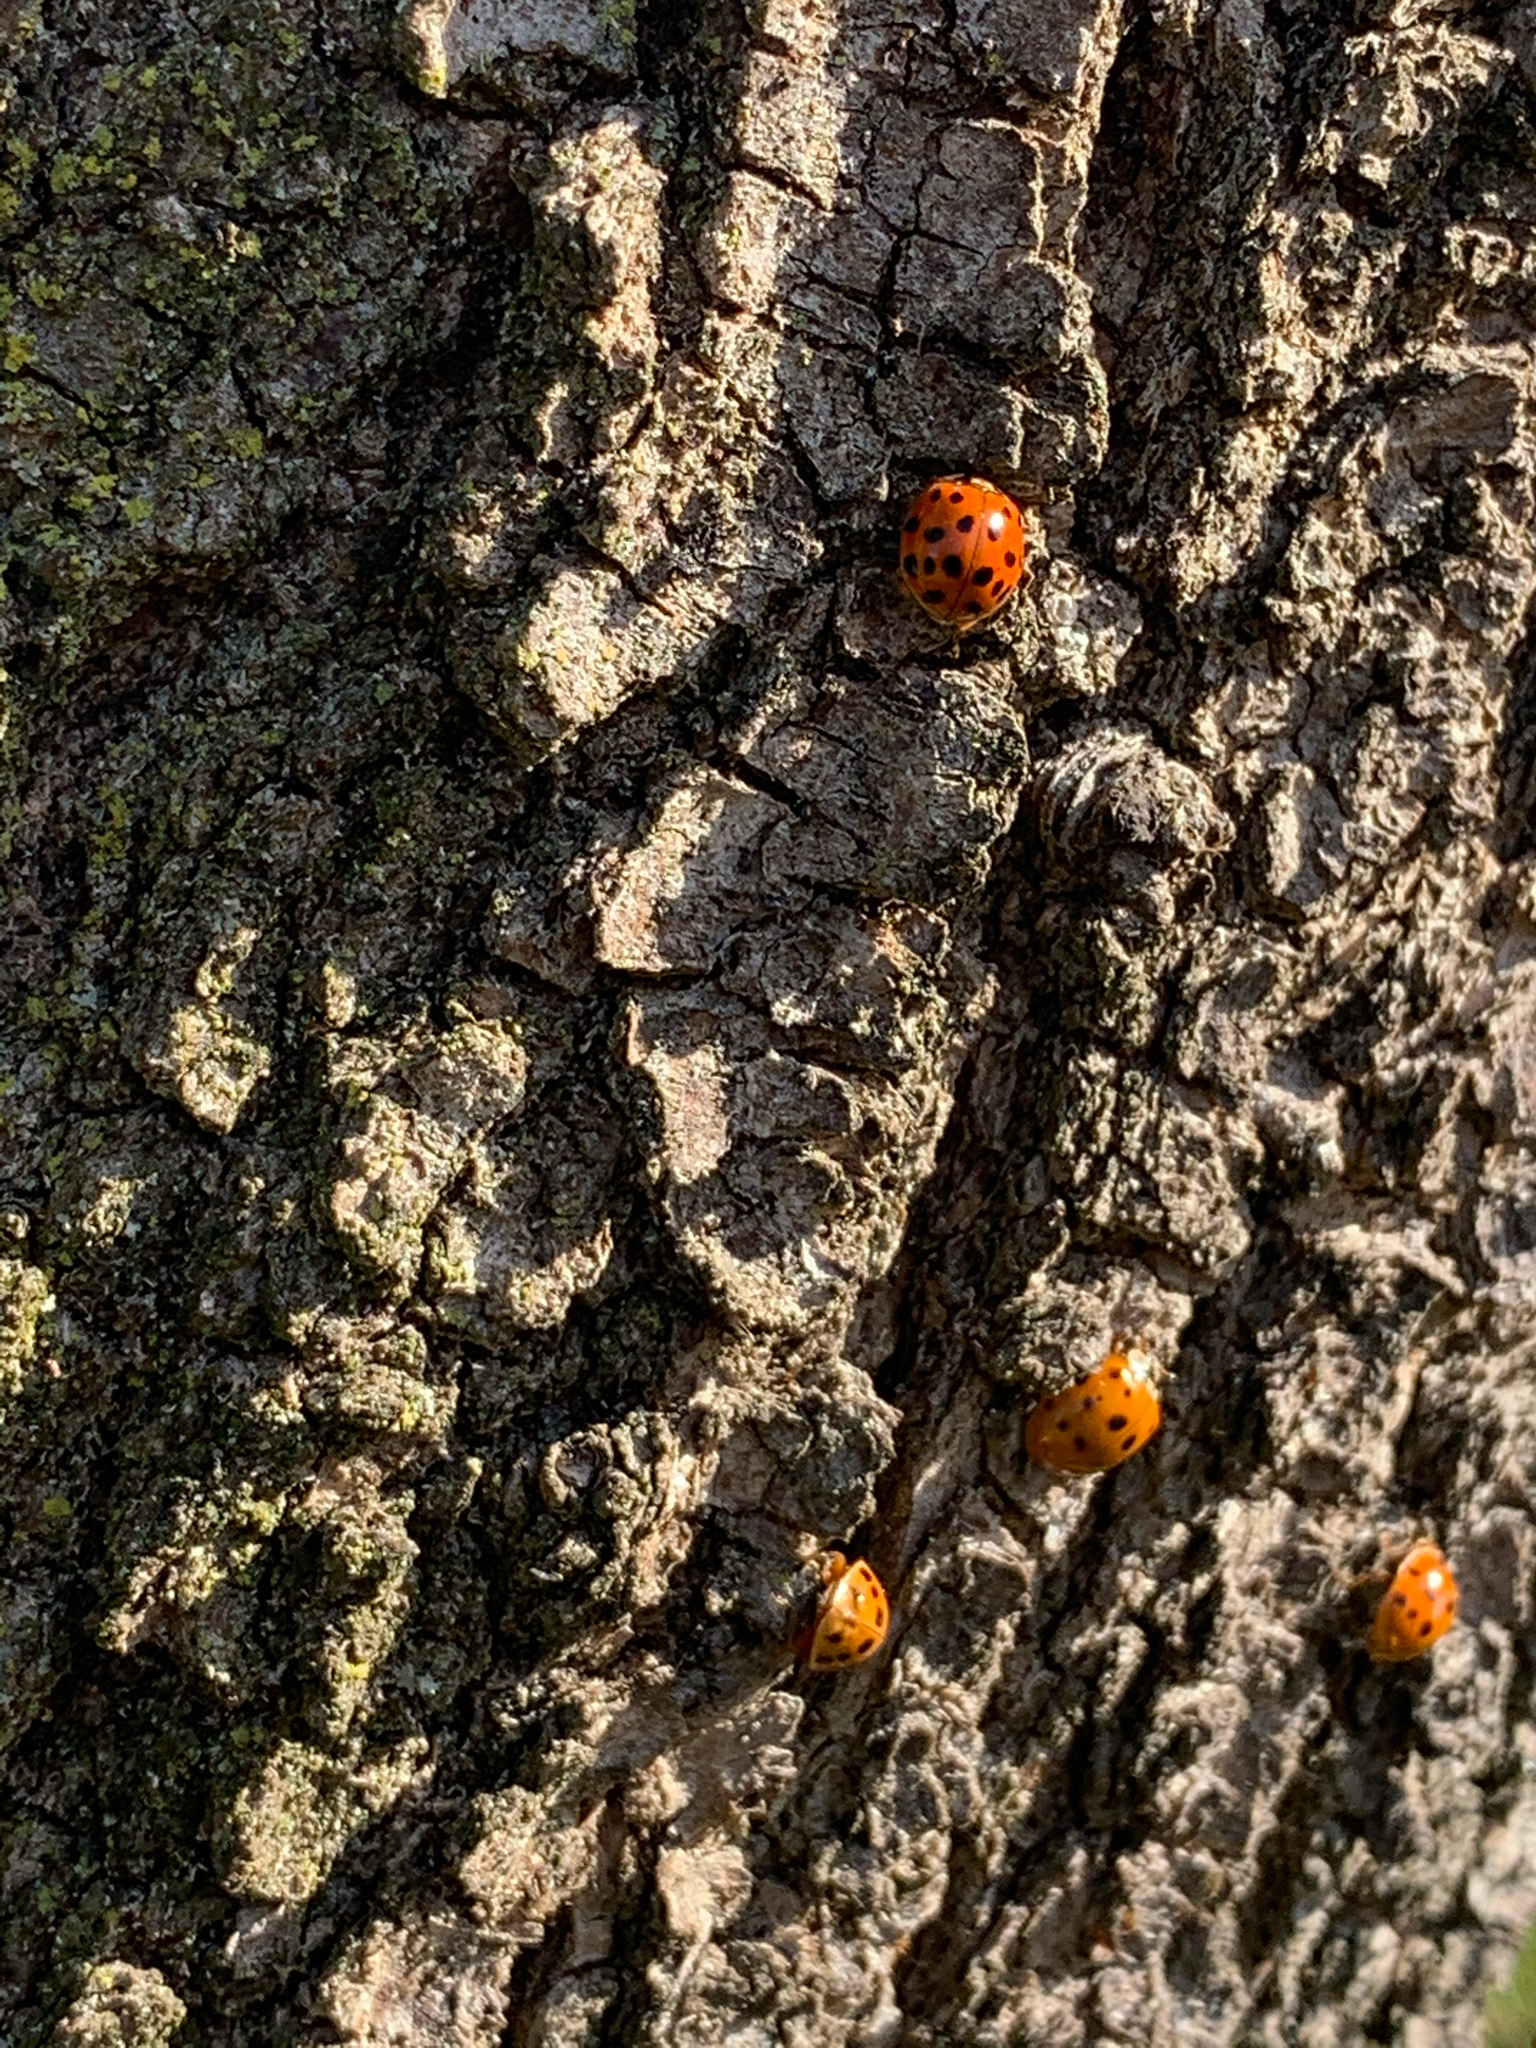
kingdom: Animalia
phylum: Arthropoda
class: Insecta
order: Coleoptera
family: Coccinellidae
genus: Harmonia
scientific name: Harmonia axyridis
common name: Harlequin ladybird
